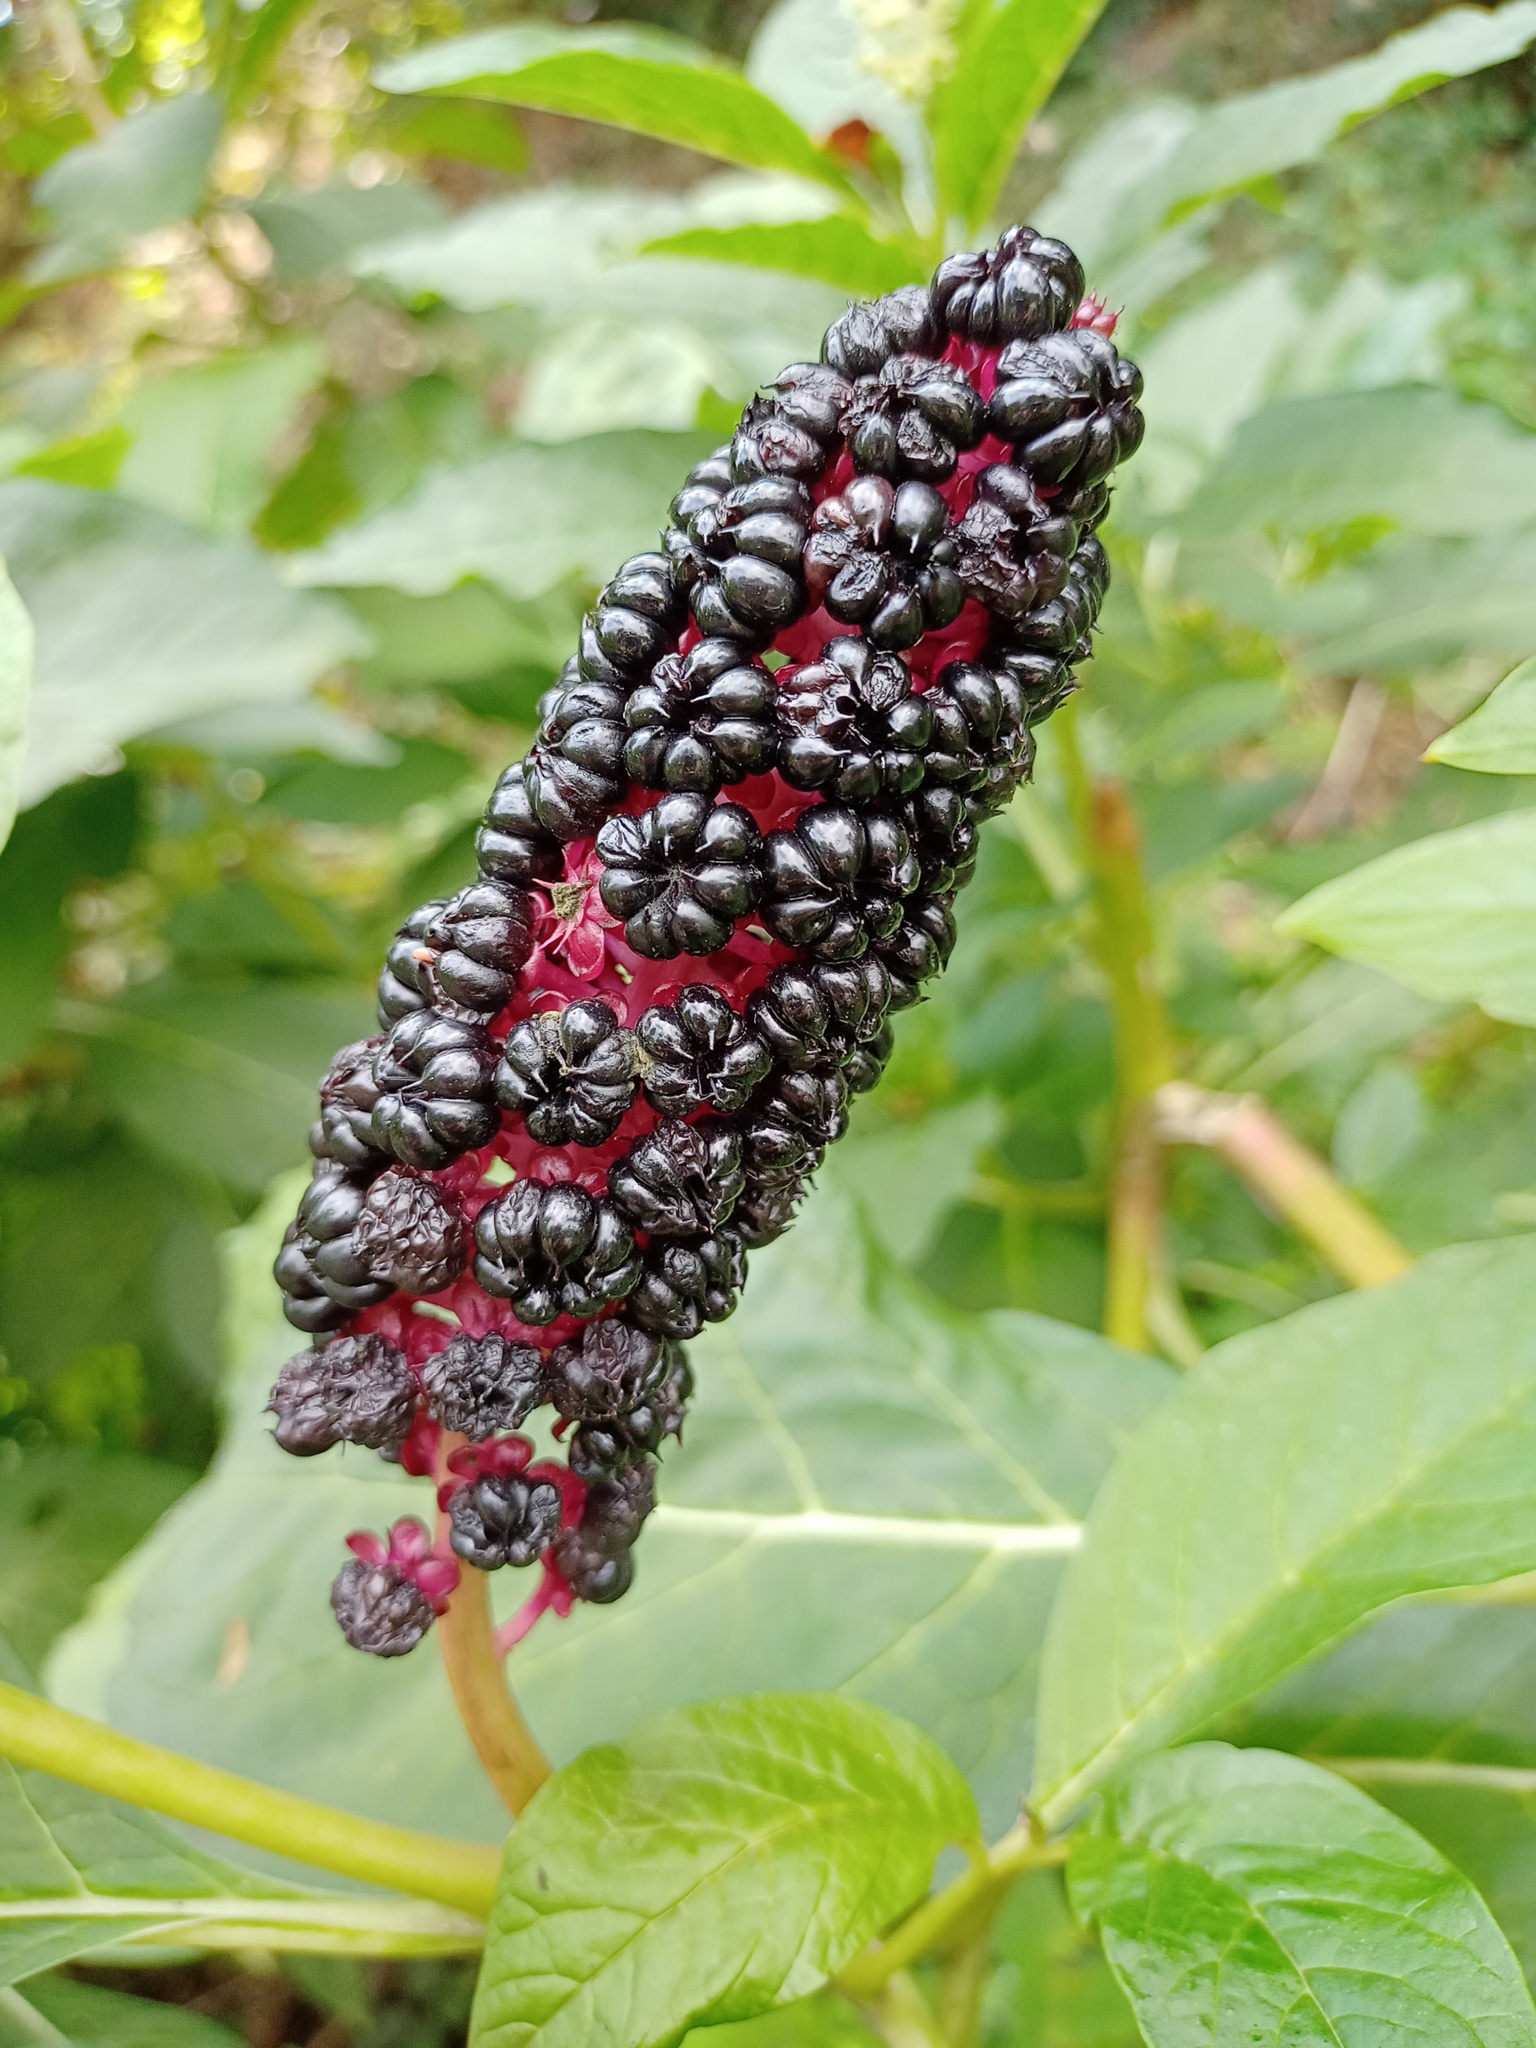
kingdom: Plantae
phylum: Tracheophyta
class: Magnoliopsida
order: Caryophyllales
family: Phytolaccaceae
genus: Phytolacca
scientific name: Phytolacca acinosa
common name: Indian pokeweed
